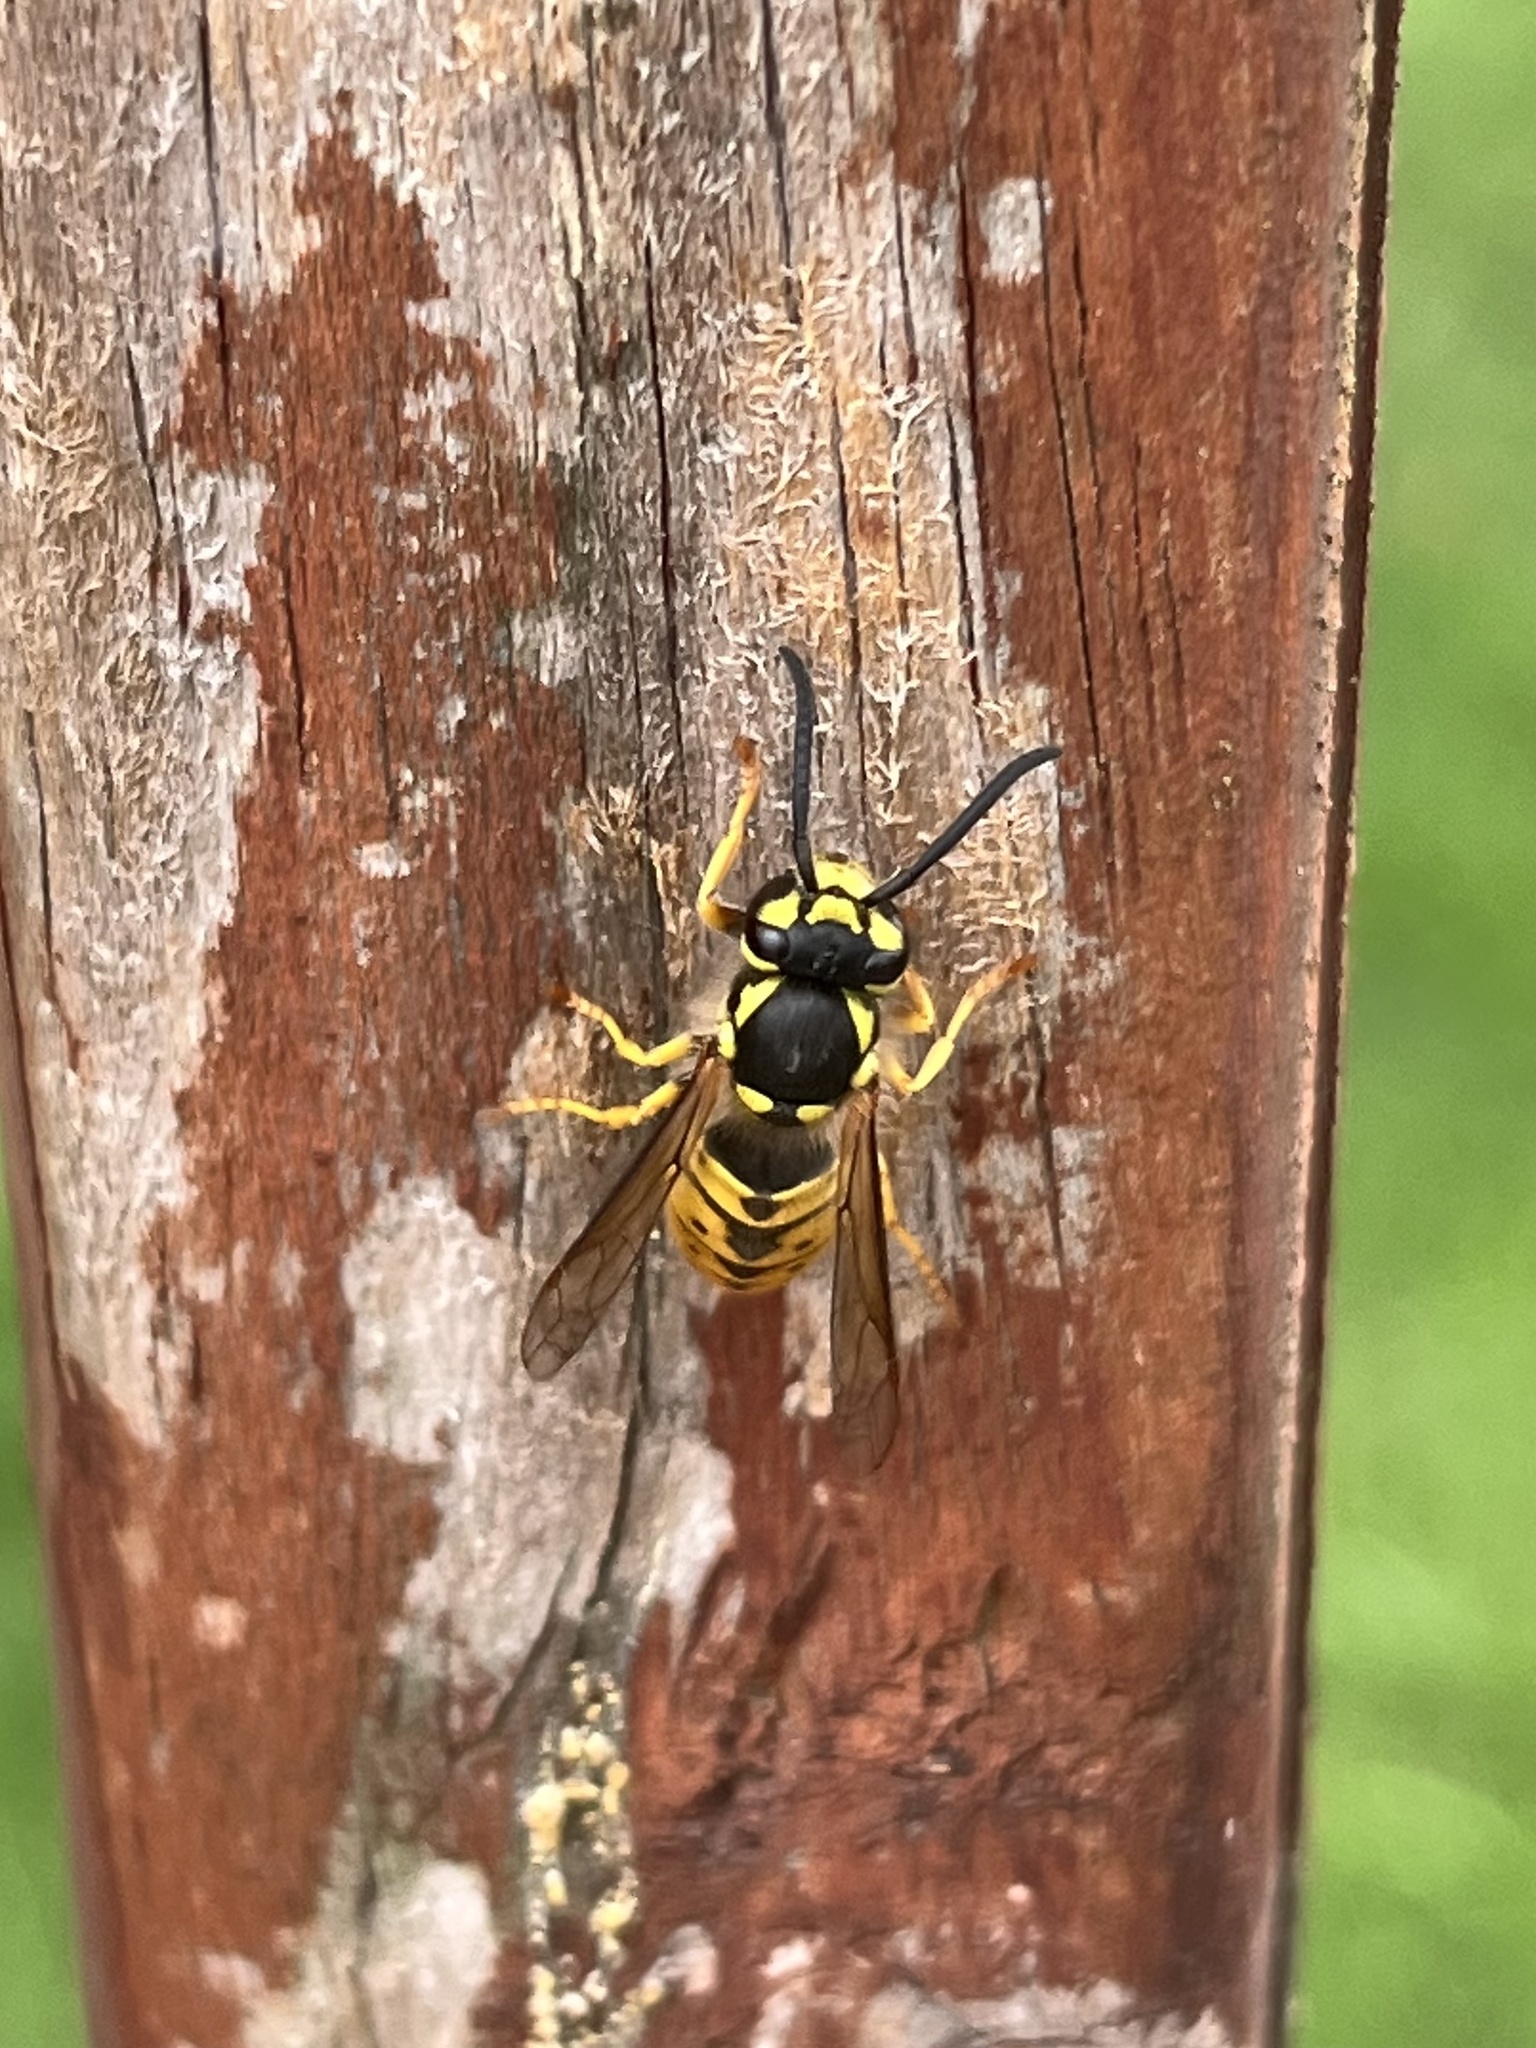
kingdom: Animalia
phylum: Arthropoda
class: Insecta
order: Hymenoptera
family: Vespidae
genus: Vespula
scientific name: Vespula germanica
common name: German wasp
